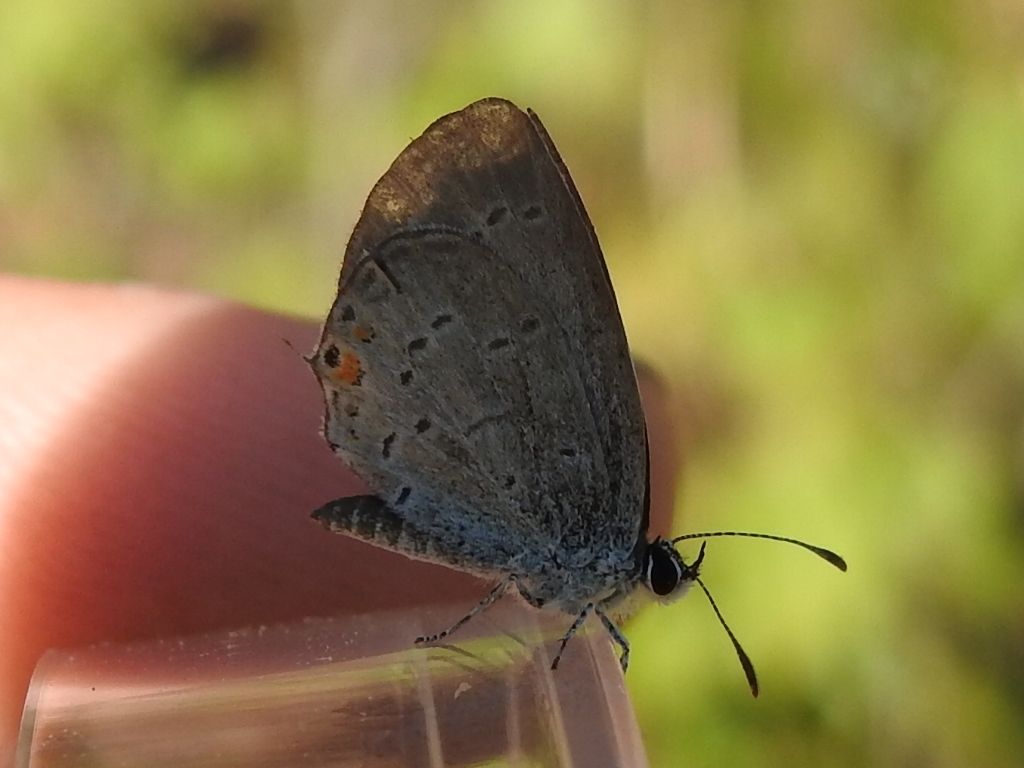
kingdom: Animalia
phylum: Arthropoda
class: Insecta
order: Lepidoptera
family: Lycaenidae
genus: Elkalyce
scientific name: Elkalyce comyntas
